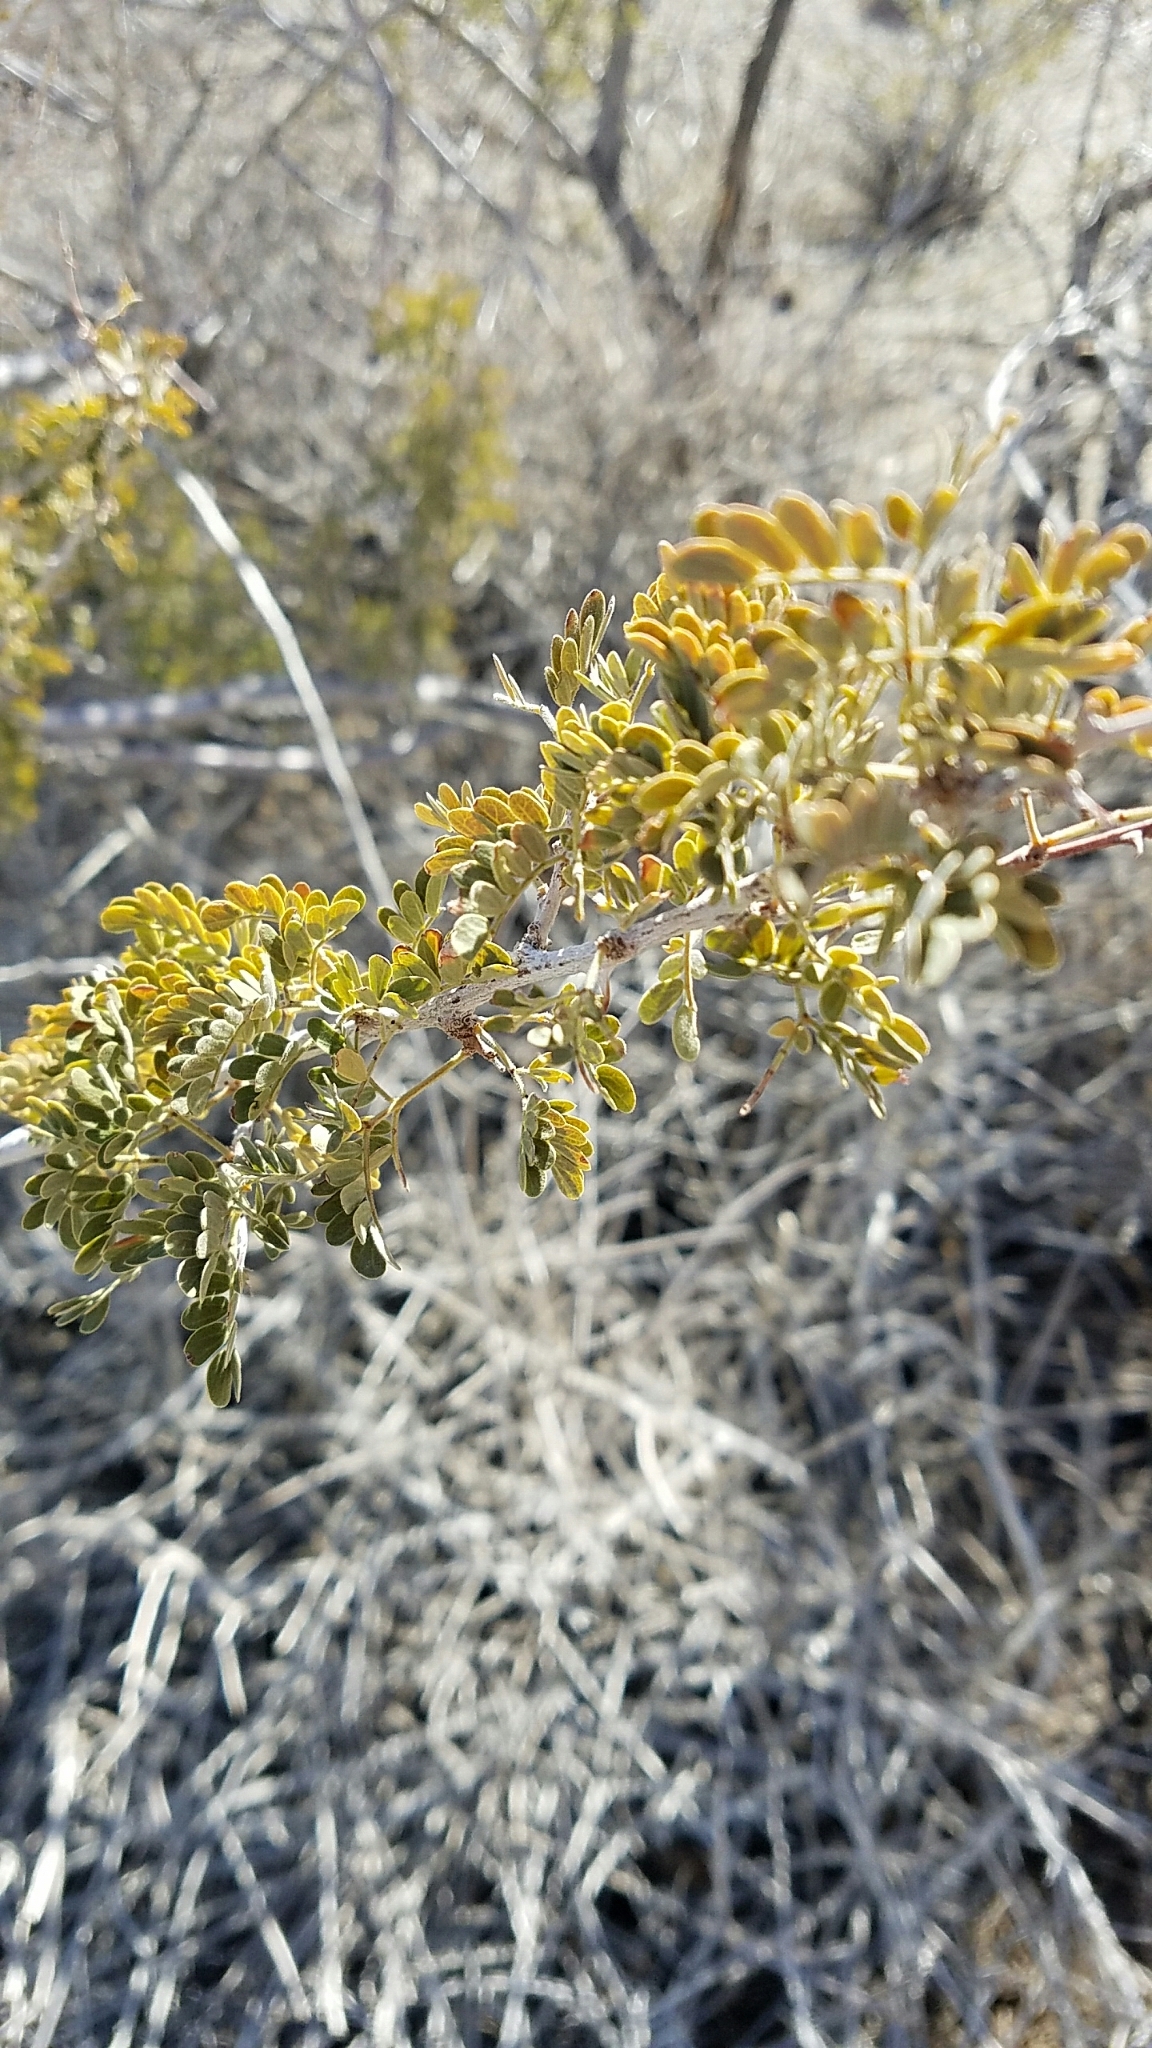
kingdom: Plantae
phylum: Tracheophyta
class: Magnoliopsida
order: Fabales
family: Fabaceae
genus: Senegalia
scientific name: Senegalia greggii
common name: Texas-mimosa
